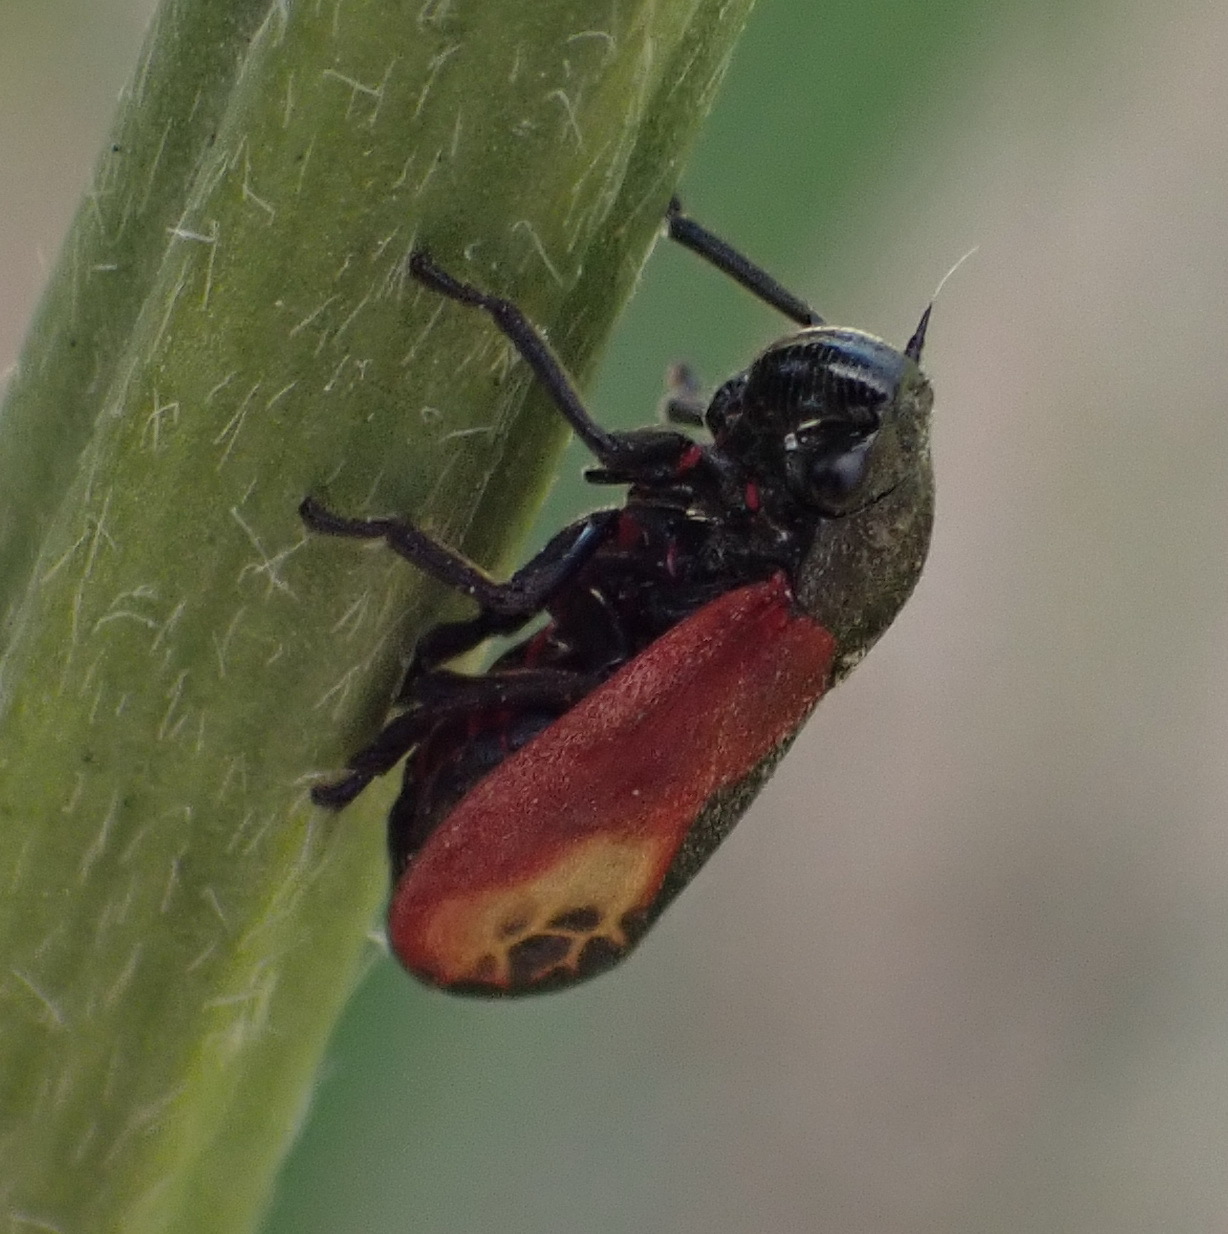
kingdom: Animalia
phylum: Arthropoda
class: Insecta
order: Hemiptera
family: Cercopidae
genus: Rhinaulax
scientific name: Rhinaulax analis
